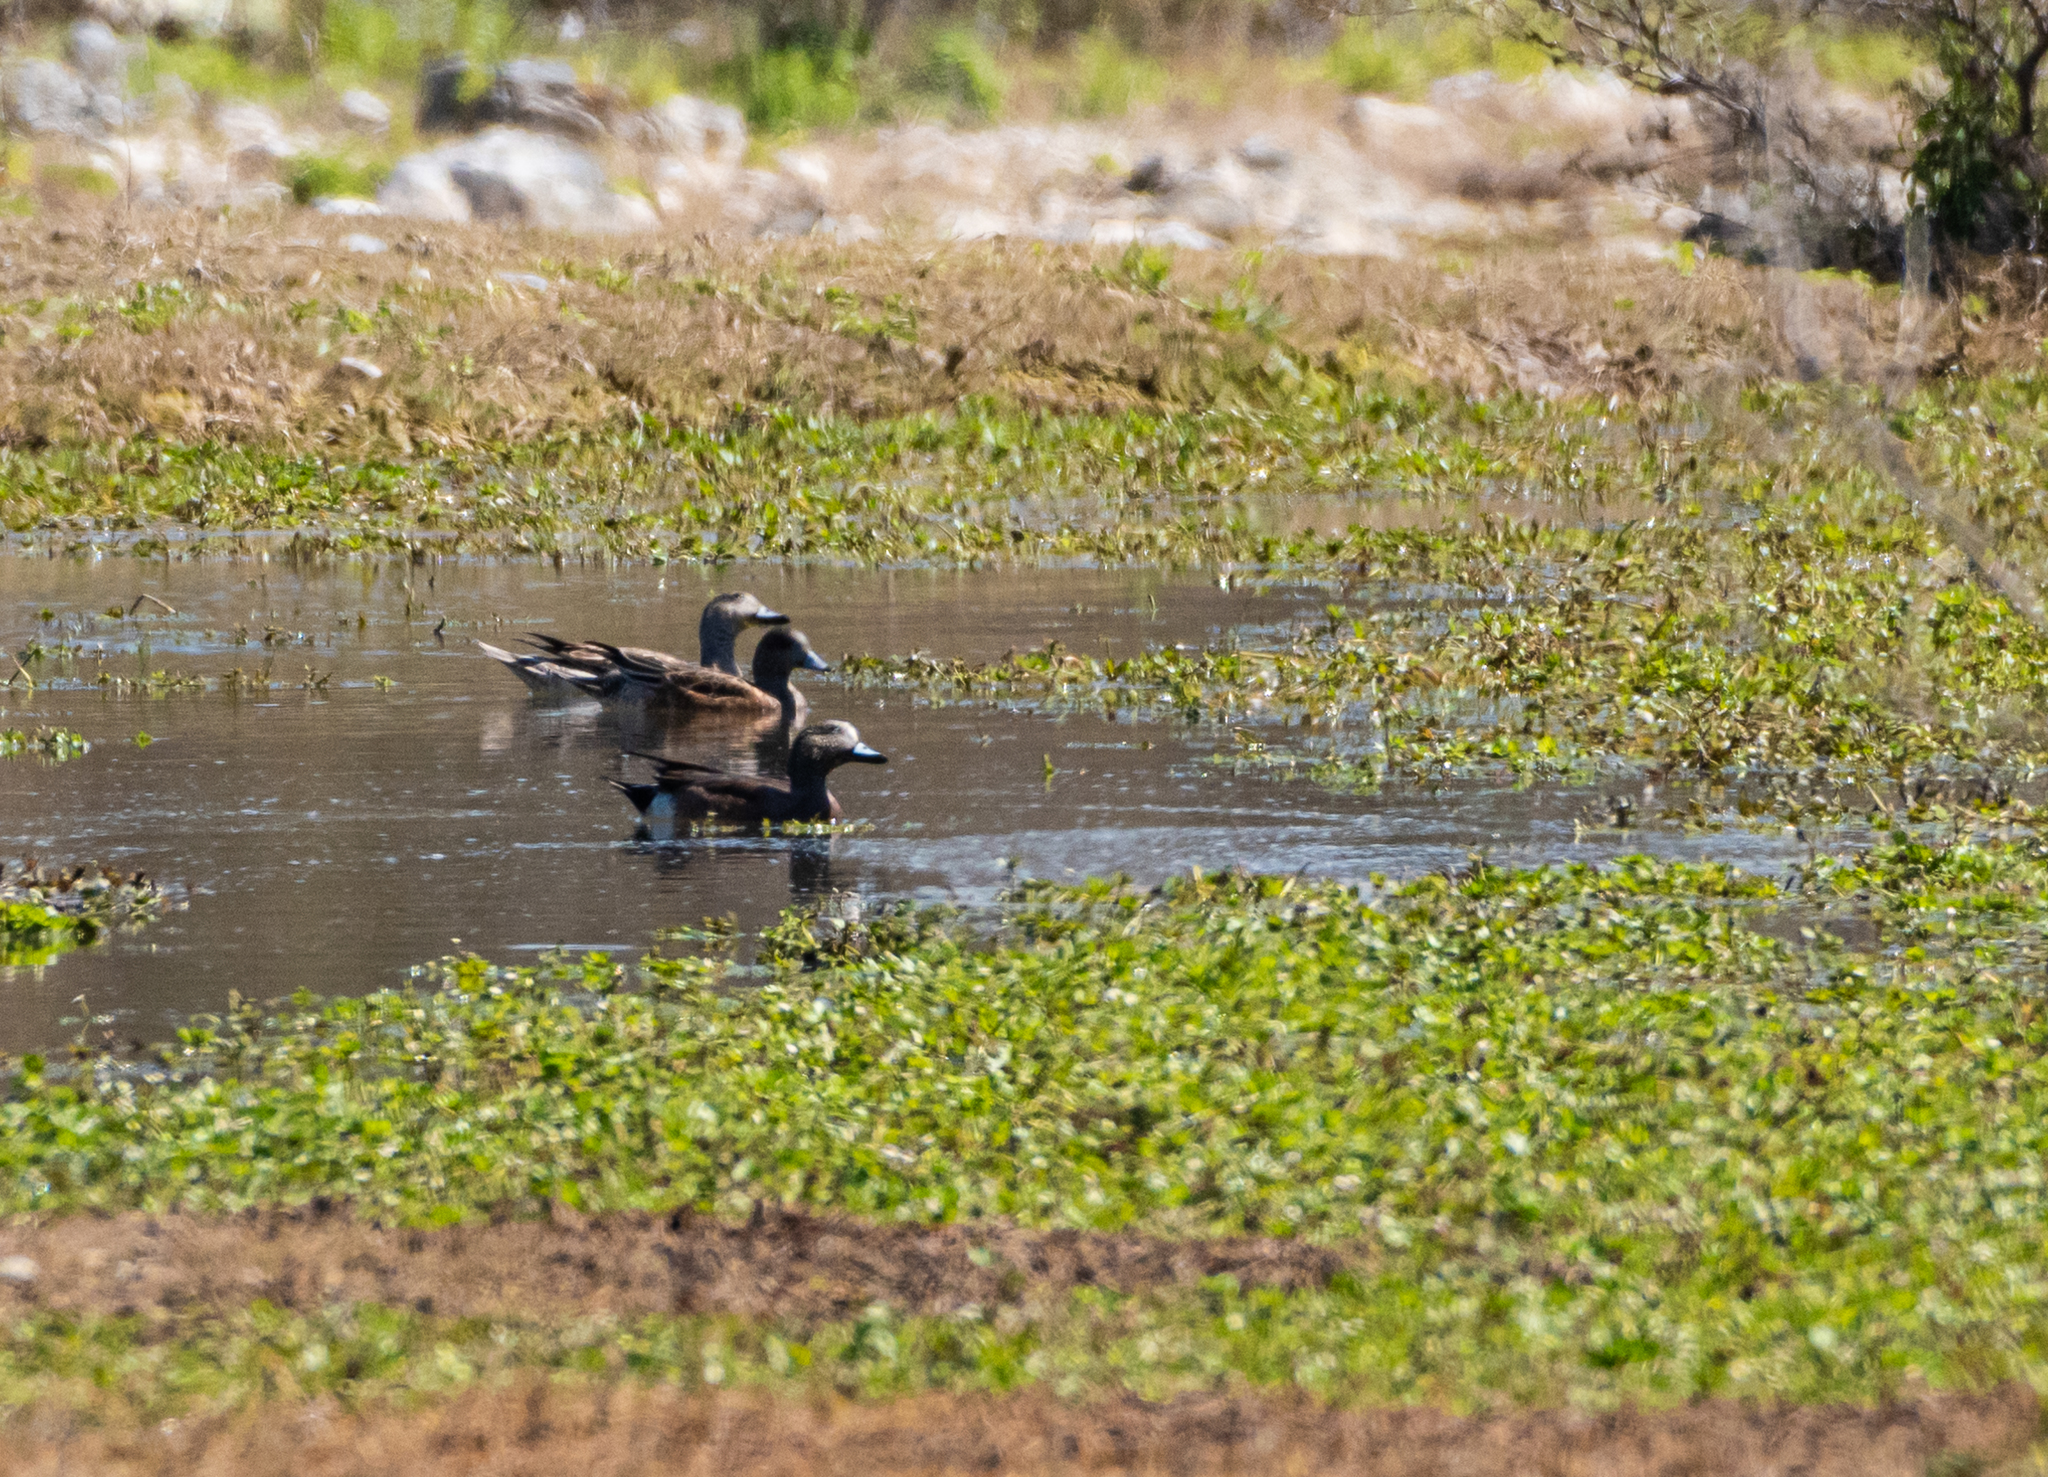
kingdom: Animalia
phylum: Chordata
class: Aves
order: Anseriformes
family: Anatidae
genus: Mareca
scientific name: Mareca americana
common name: American wigeon
